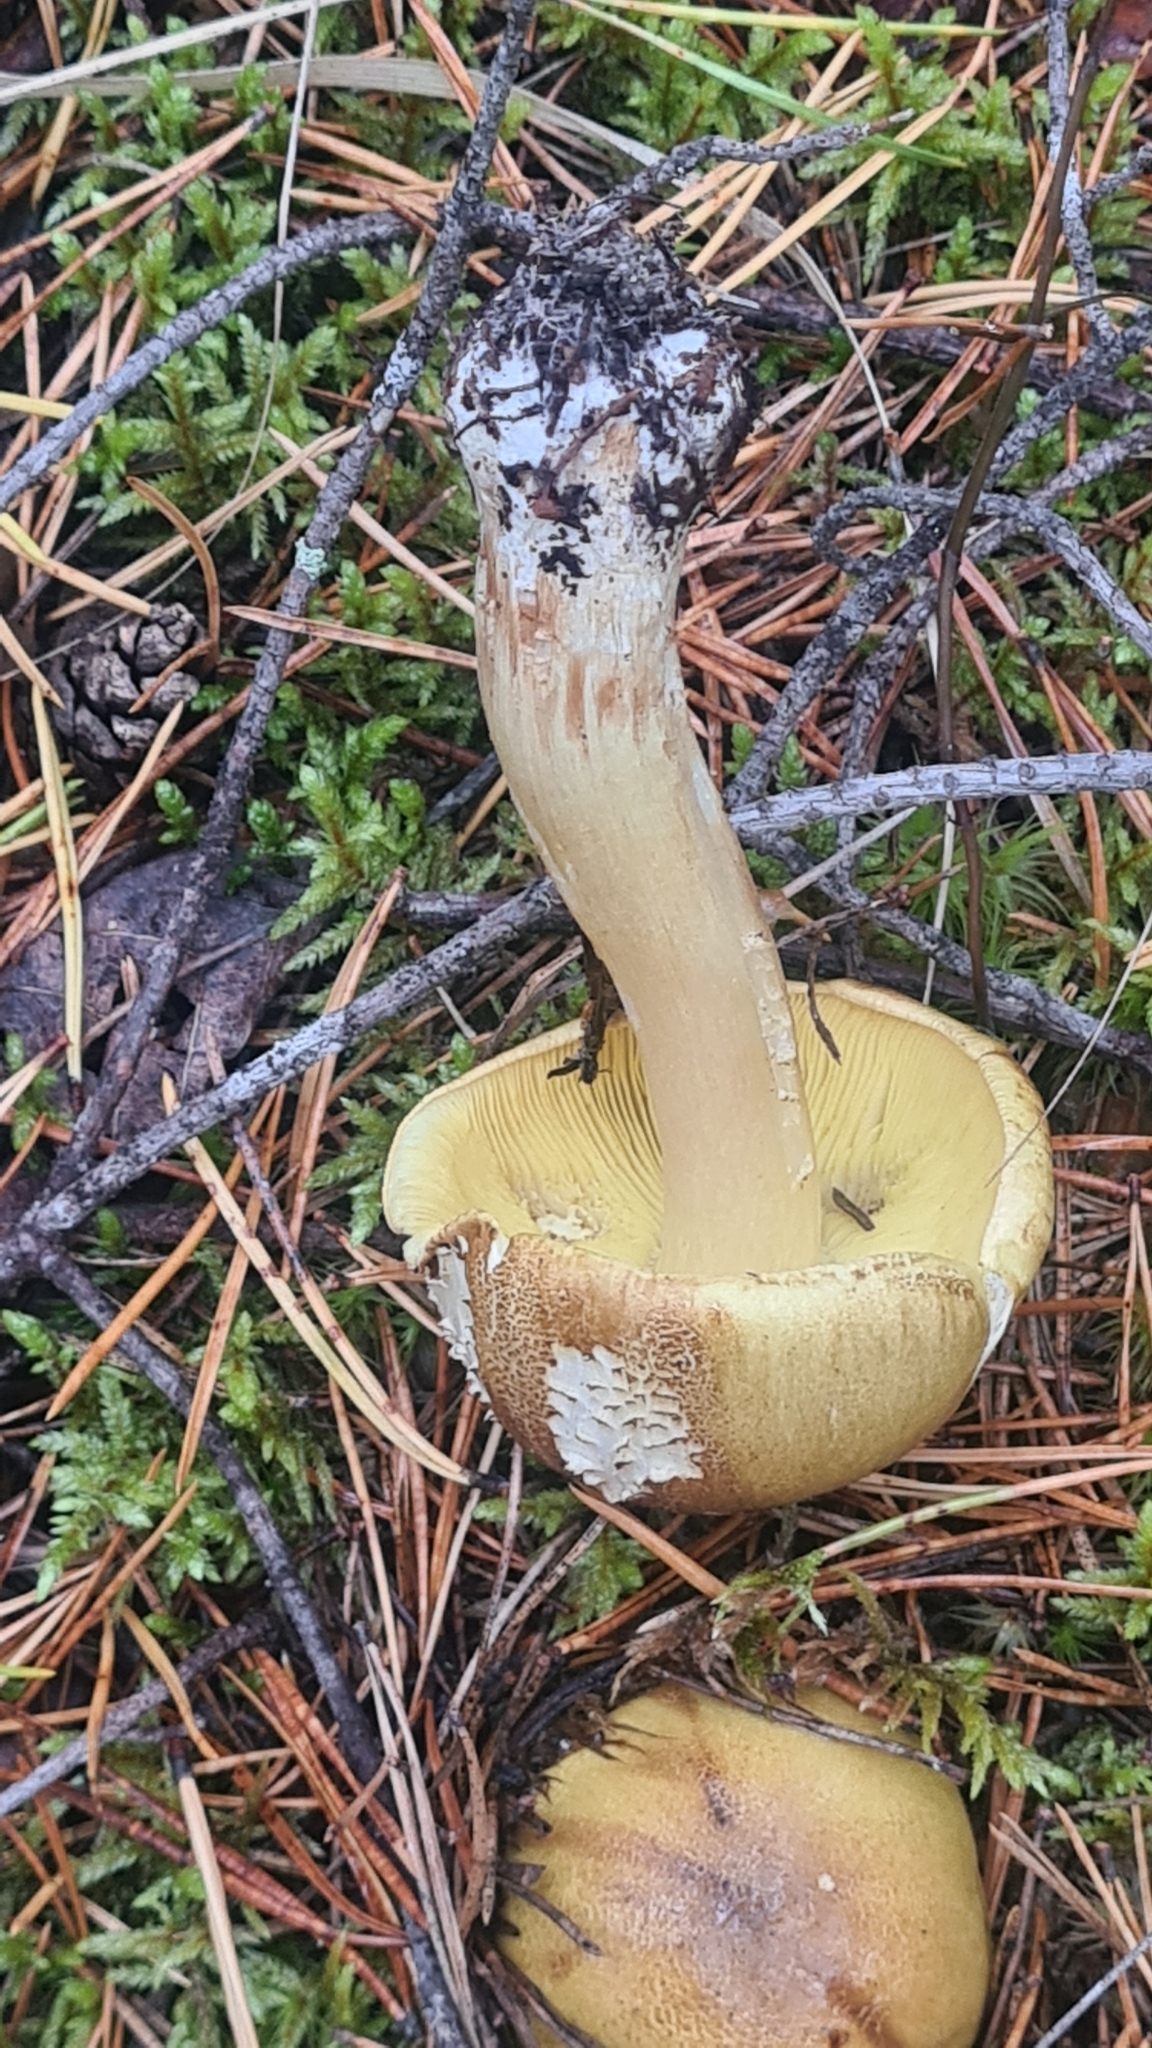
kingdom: Fungi
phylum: Basidiomycota
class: Agaricomycetes
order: Agaricales
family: Tricholomataceae
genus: Tricholoma
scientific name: Tricholoma equestre
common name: Yellow knight
